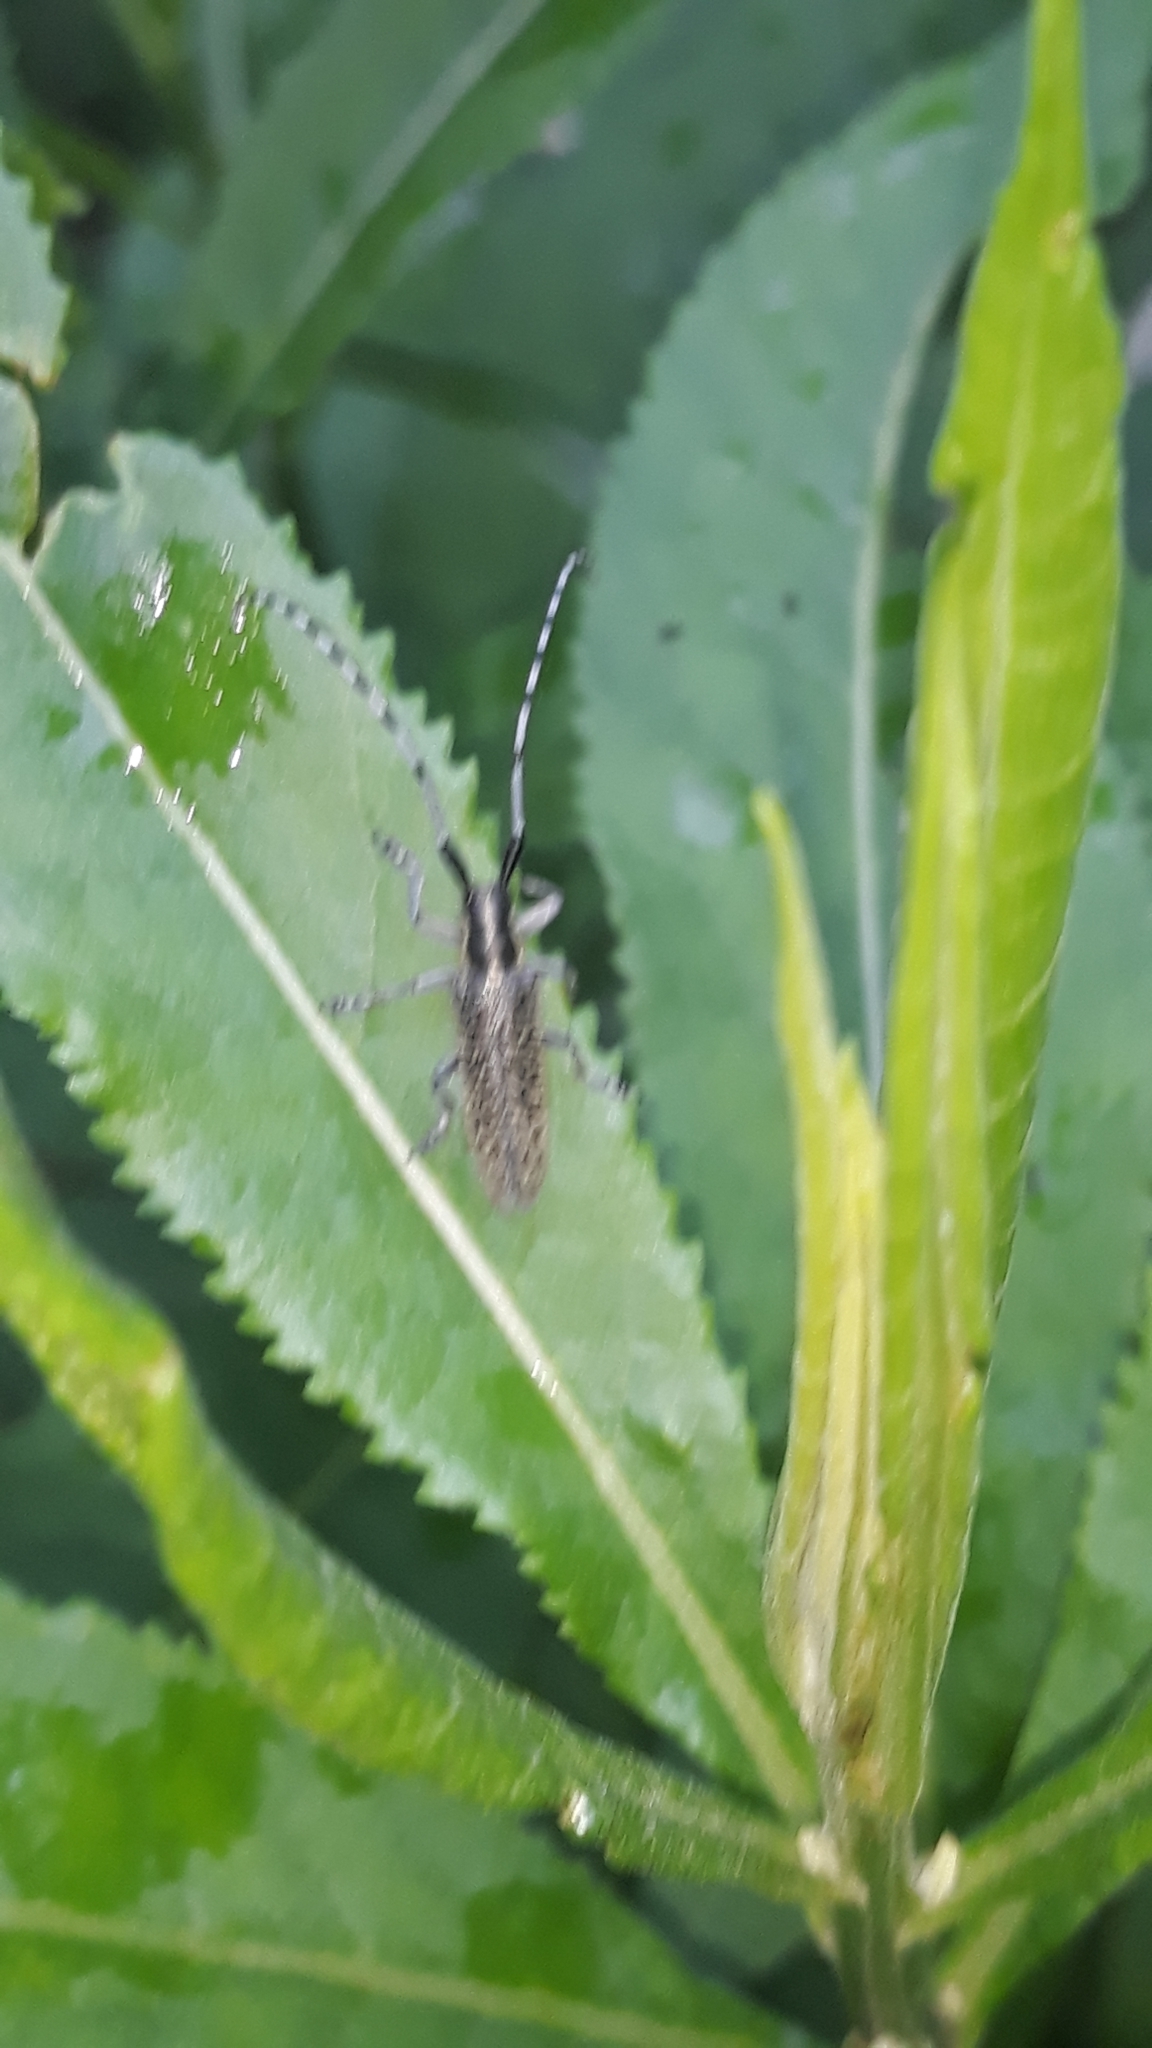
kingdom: Animalia
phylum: Arthropoda
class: Insecta
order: Coleoptera
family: Cerambycidae
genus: Agapanthia
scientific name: Agapanthia villosoviridescens
